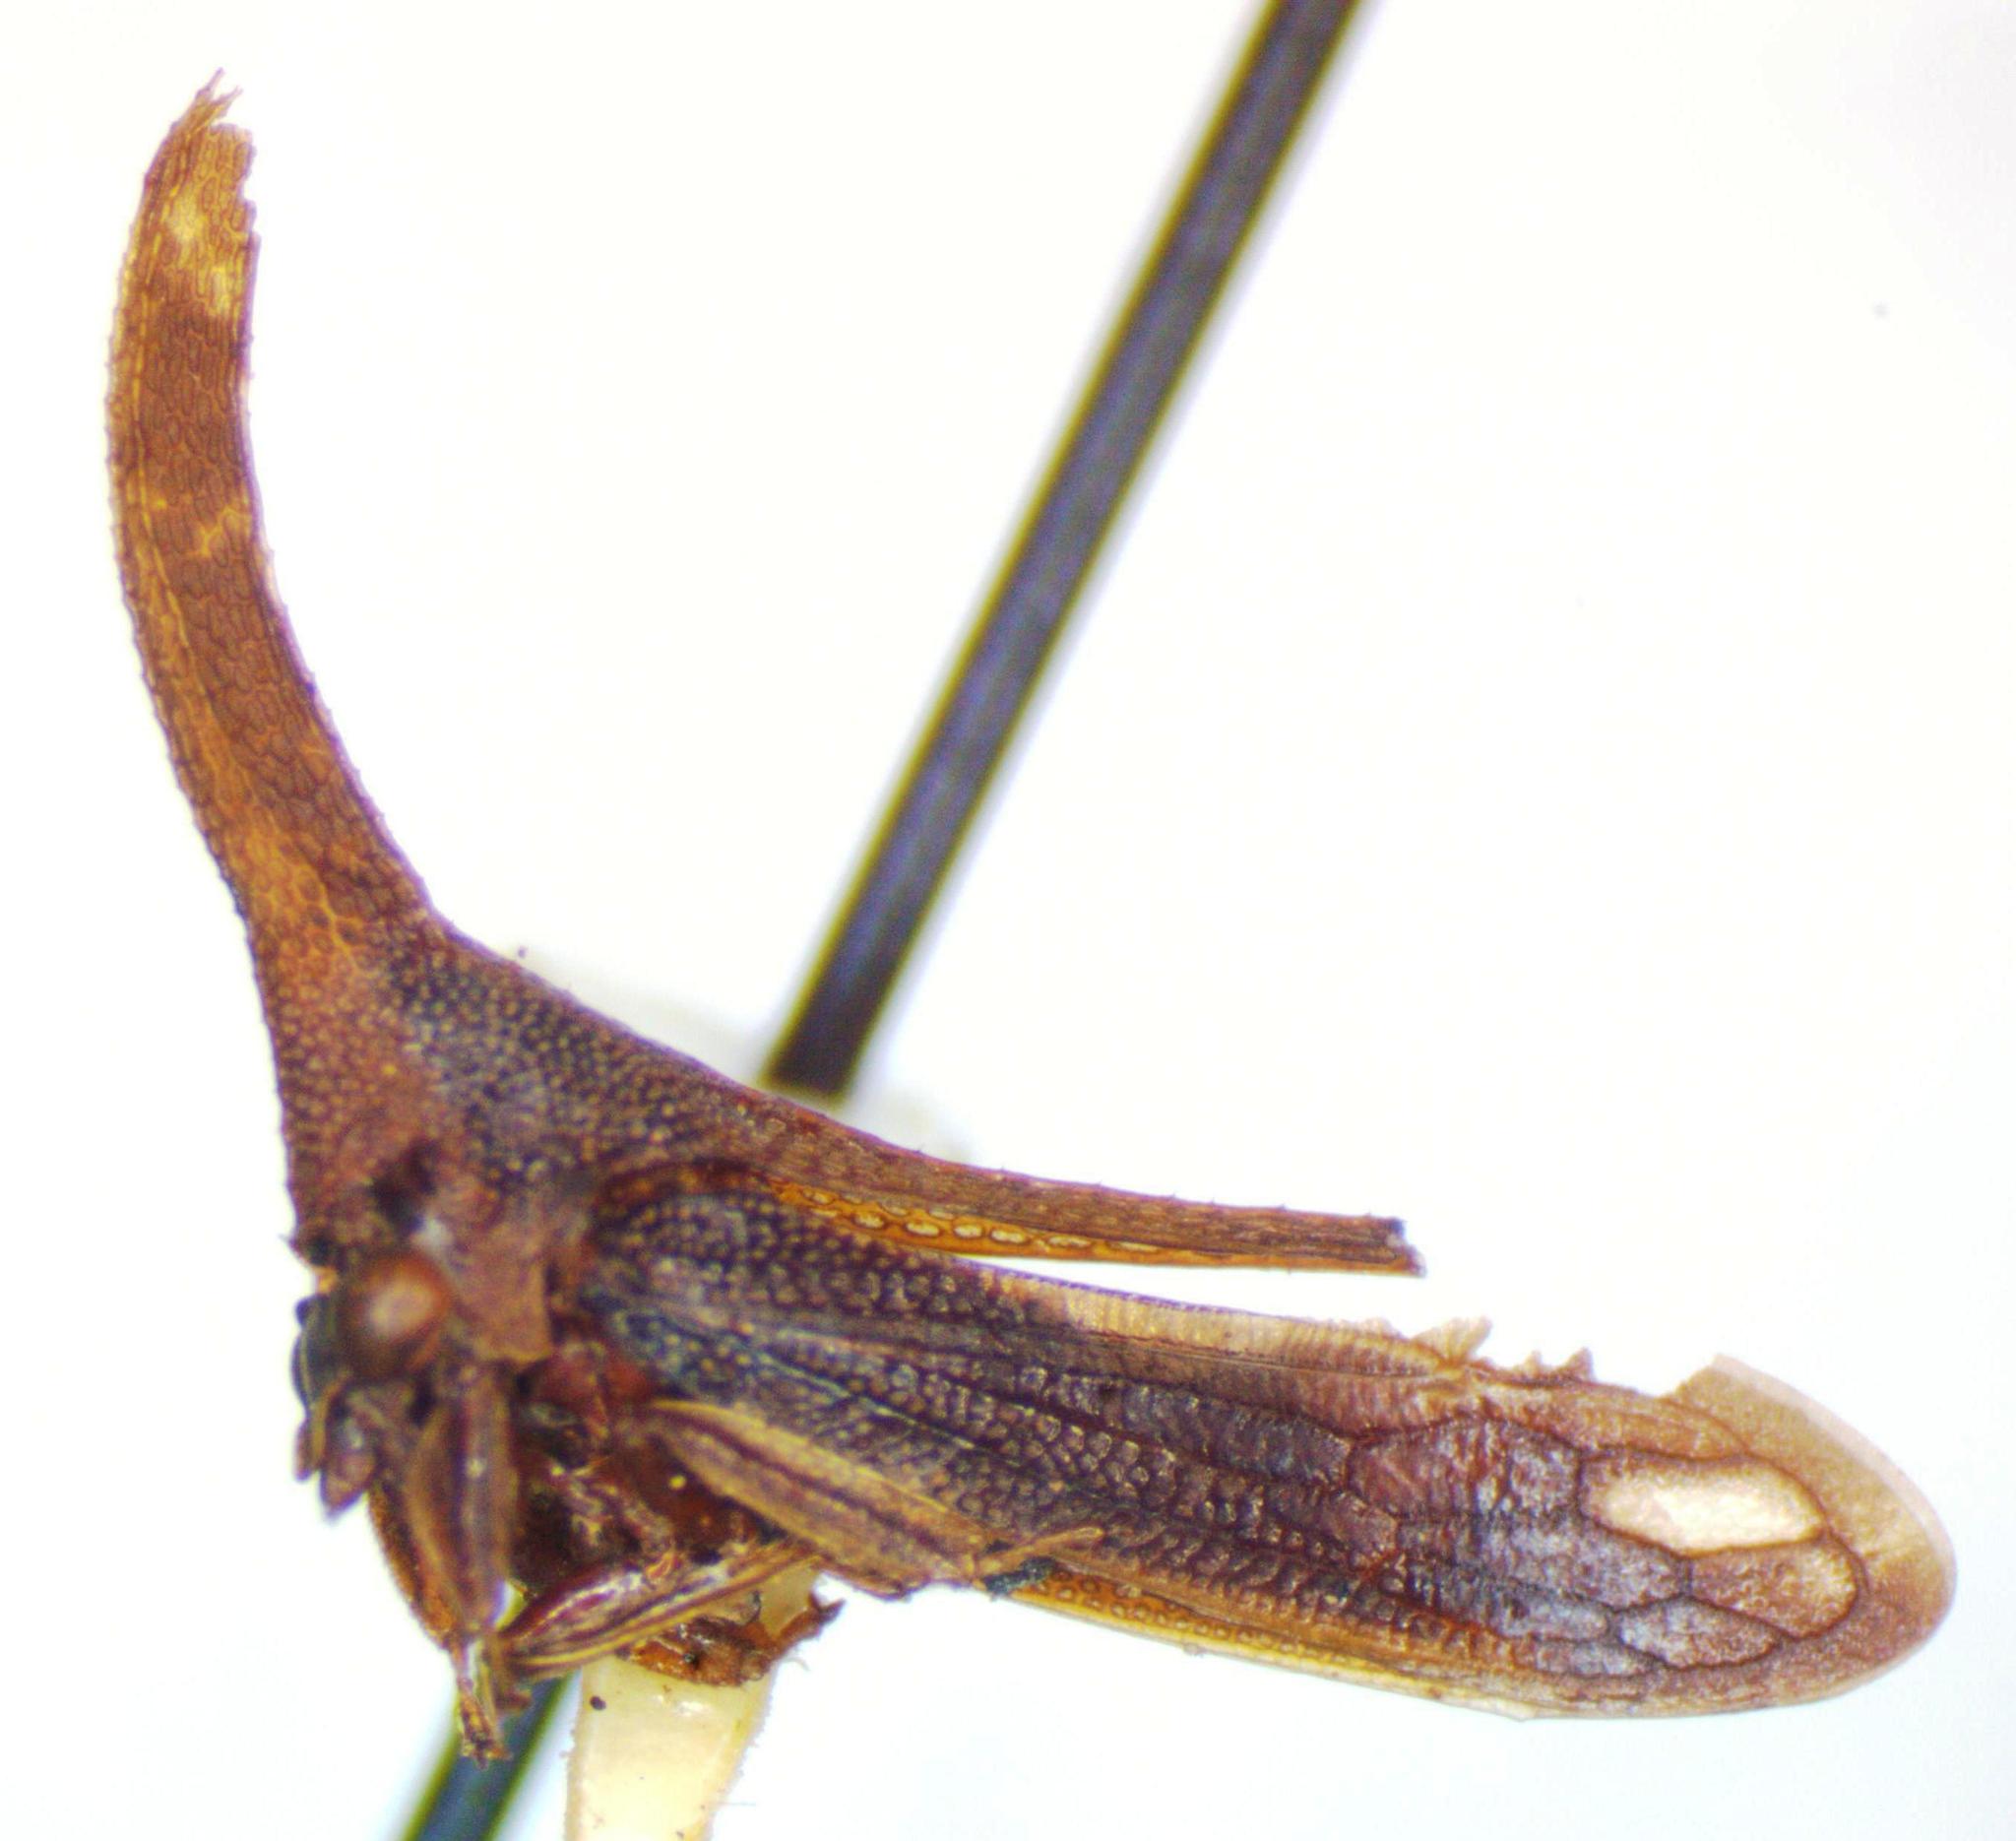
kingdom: Animalia
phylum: Arthropoda
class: Insecta
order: Hemiptera
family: Membracidae
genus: Cladonota
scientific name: Cladonota
